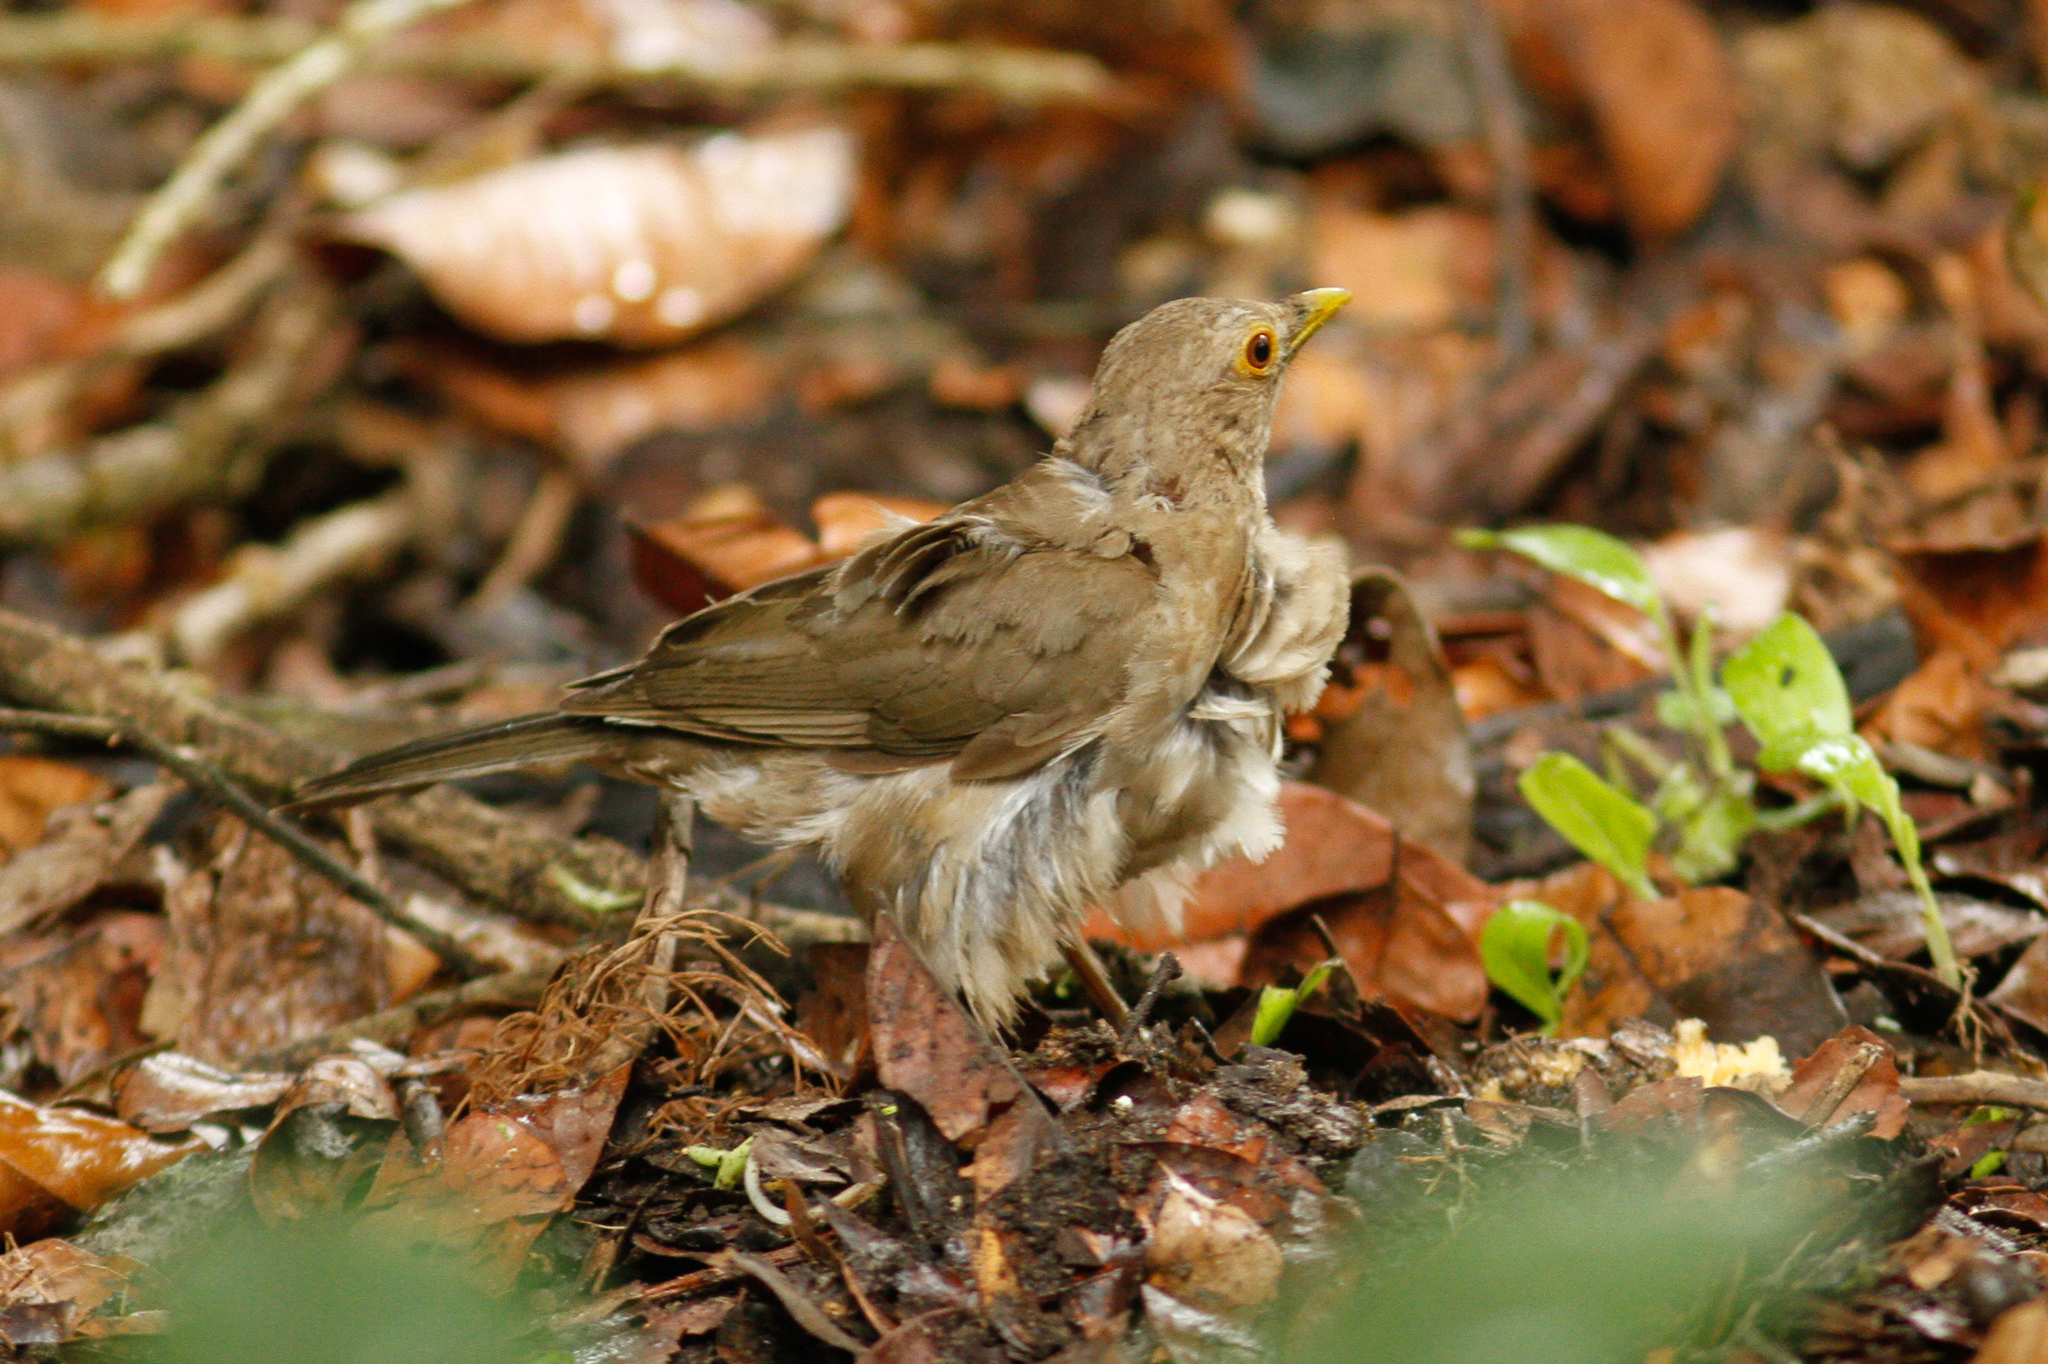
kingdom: Animalia
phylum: Chordata
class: Aves
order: Passeriformes
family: Turdidae
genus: Turdus
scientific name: Turdus maculirostris
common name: Ecuadorian thrush
